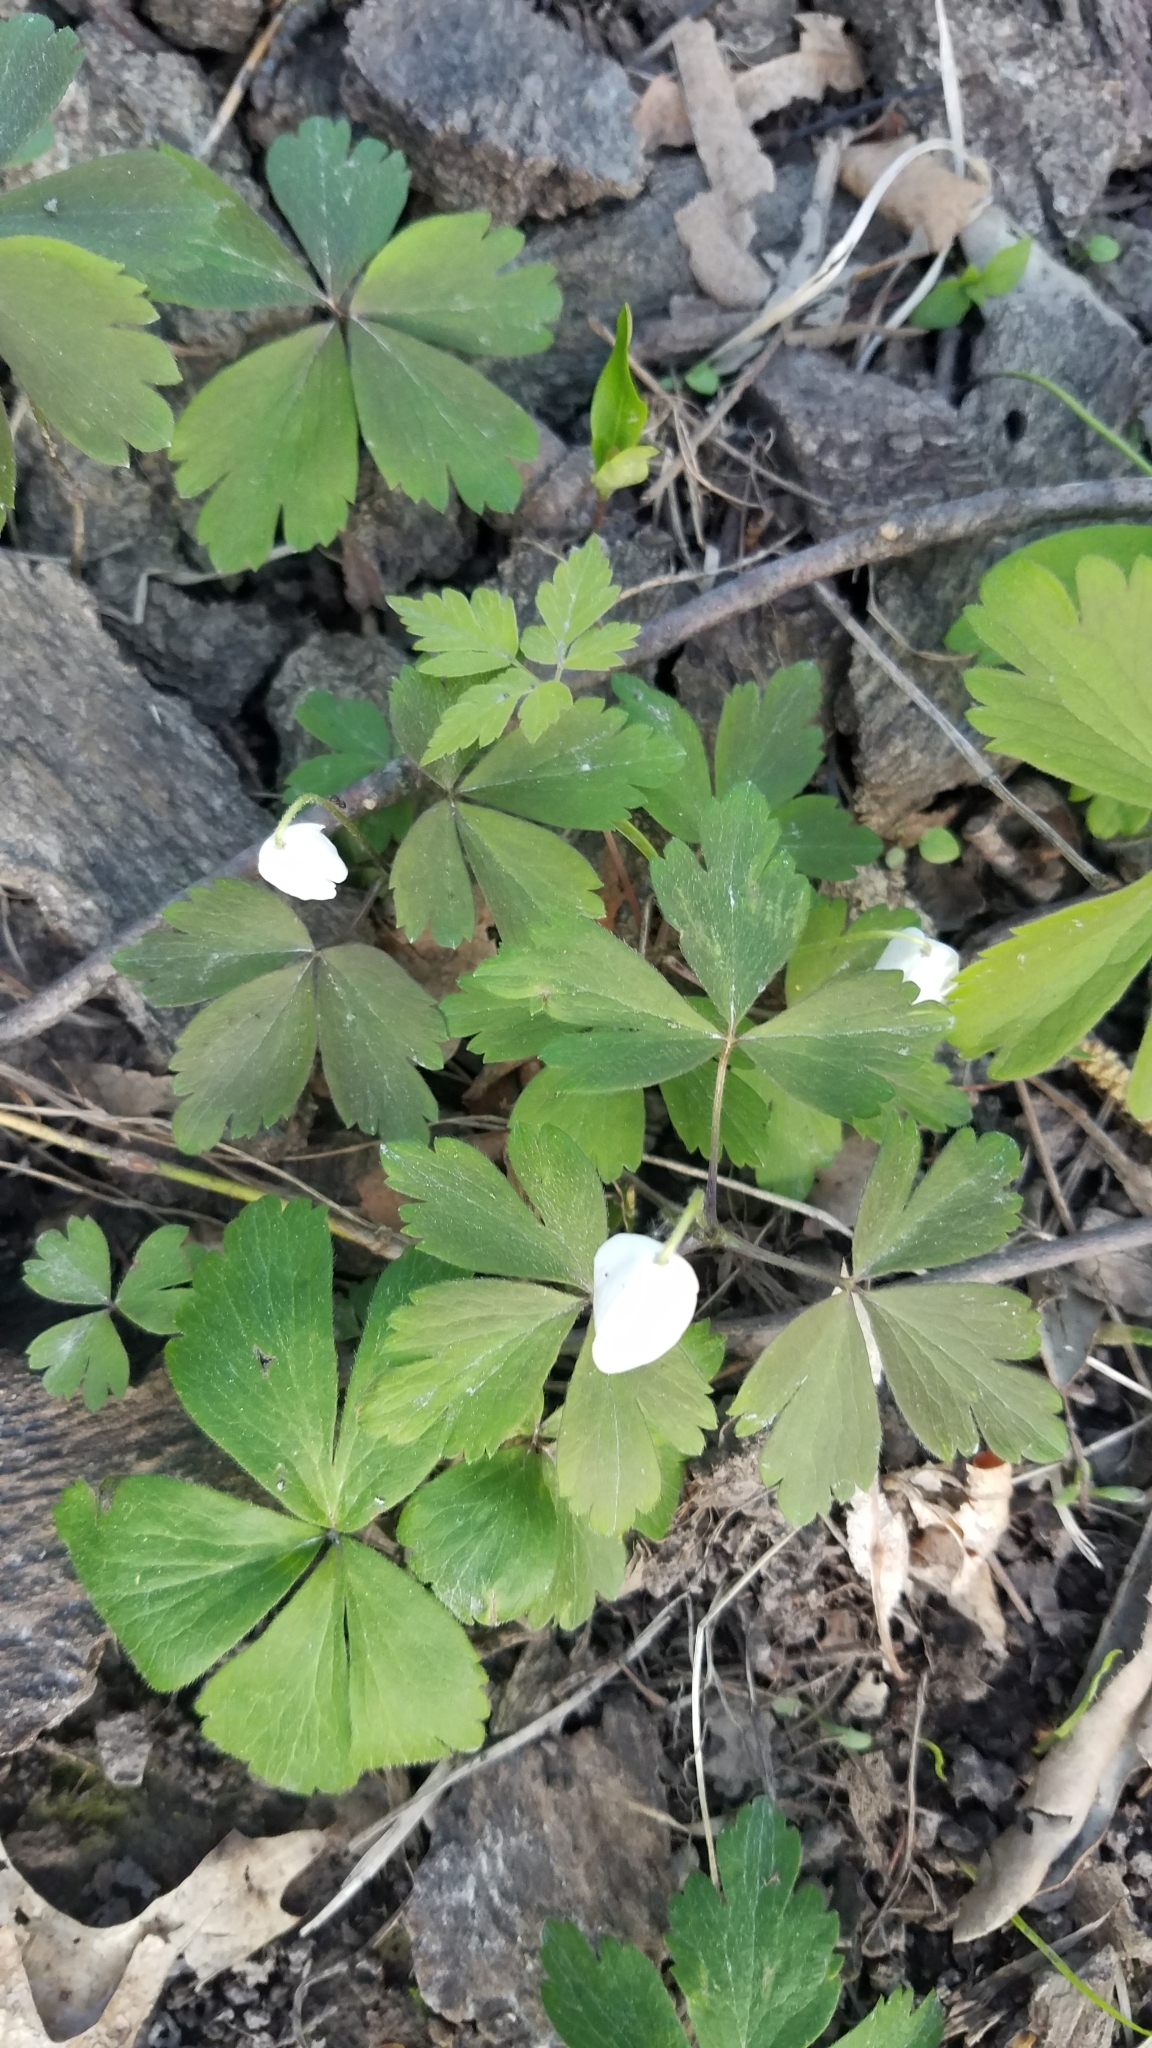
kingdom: Plantae
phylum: Tracheophyta
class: Magnoliopsida
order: Ranunculales
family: Ranunculaceae
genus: Anemone
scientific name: Anemone quinquefolia
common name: Wood anemone
